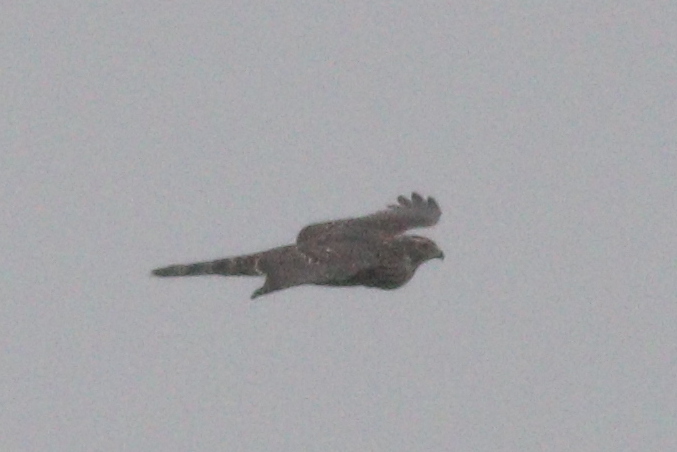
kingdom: Animalia
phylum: Chordata
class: Aves
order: Accipitriformes
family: Accipitridae
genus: Accipiter
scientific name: Accipiter gentilis
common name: Northern goshawk
